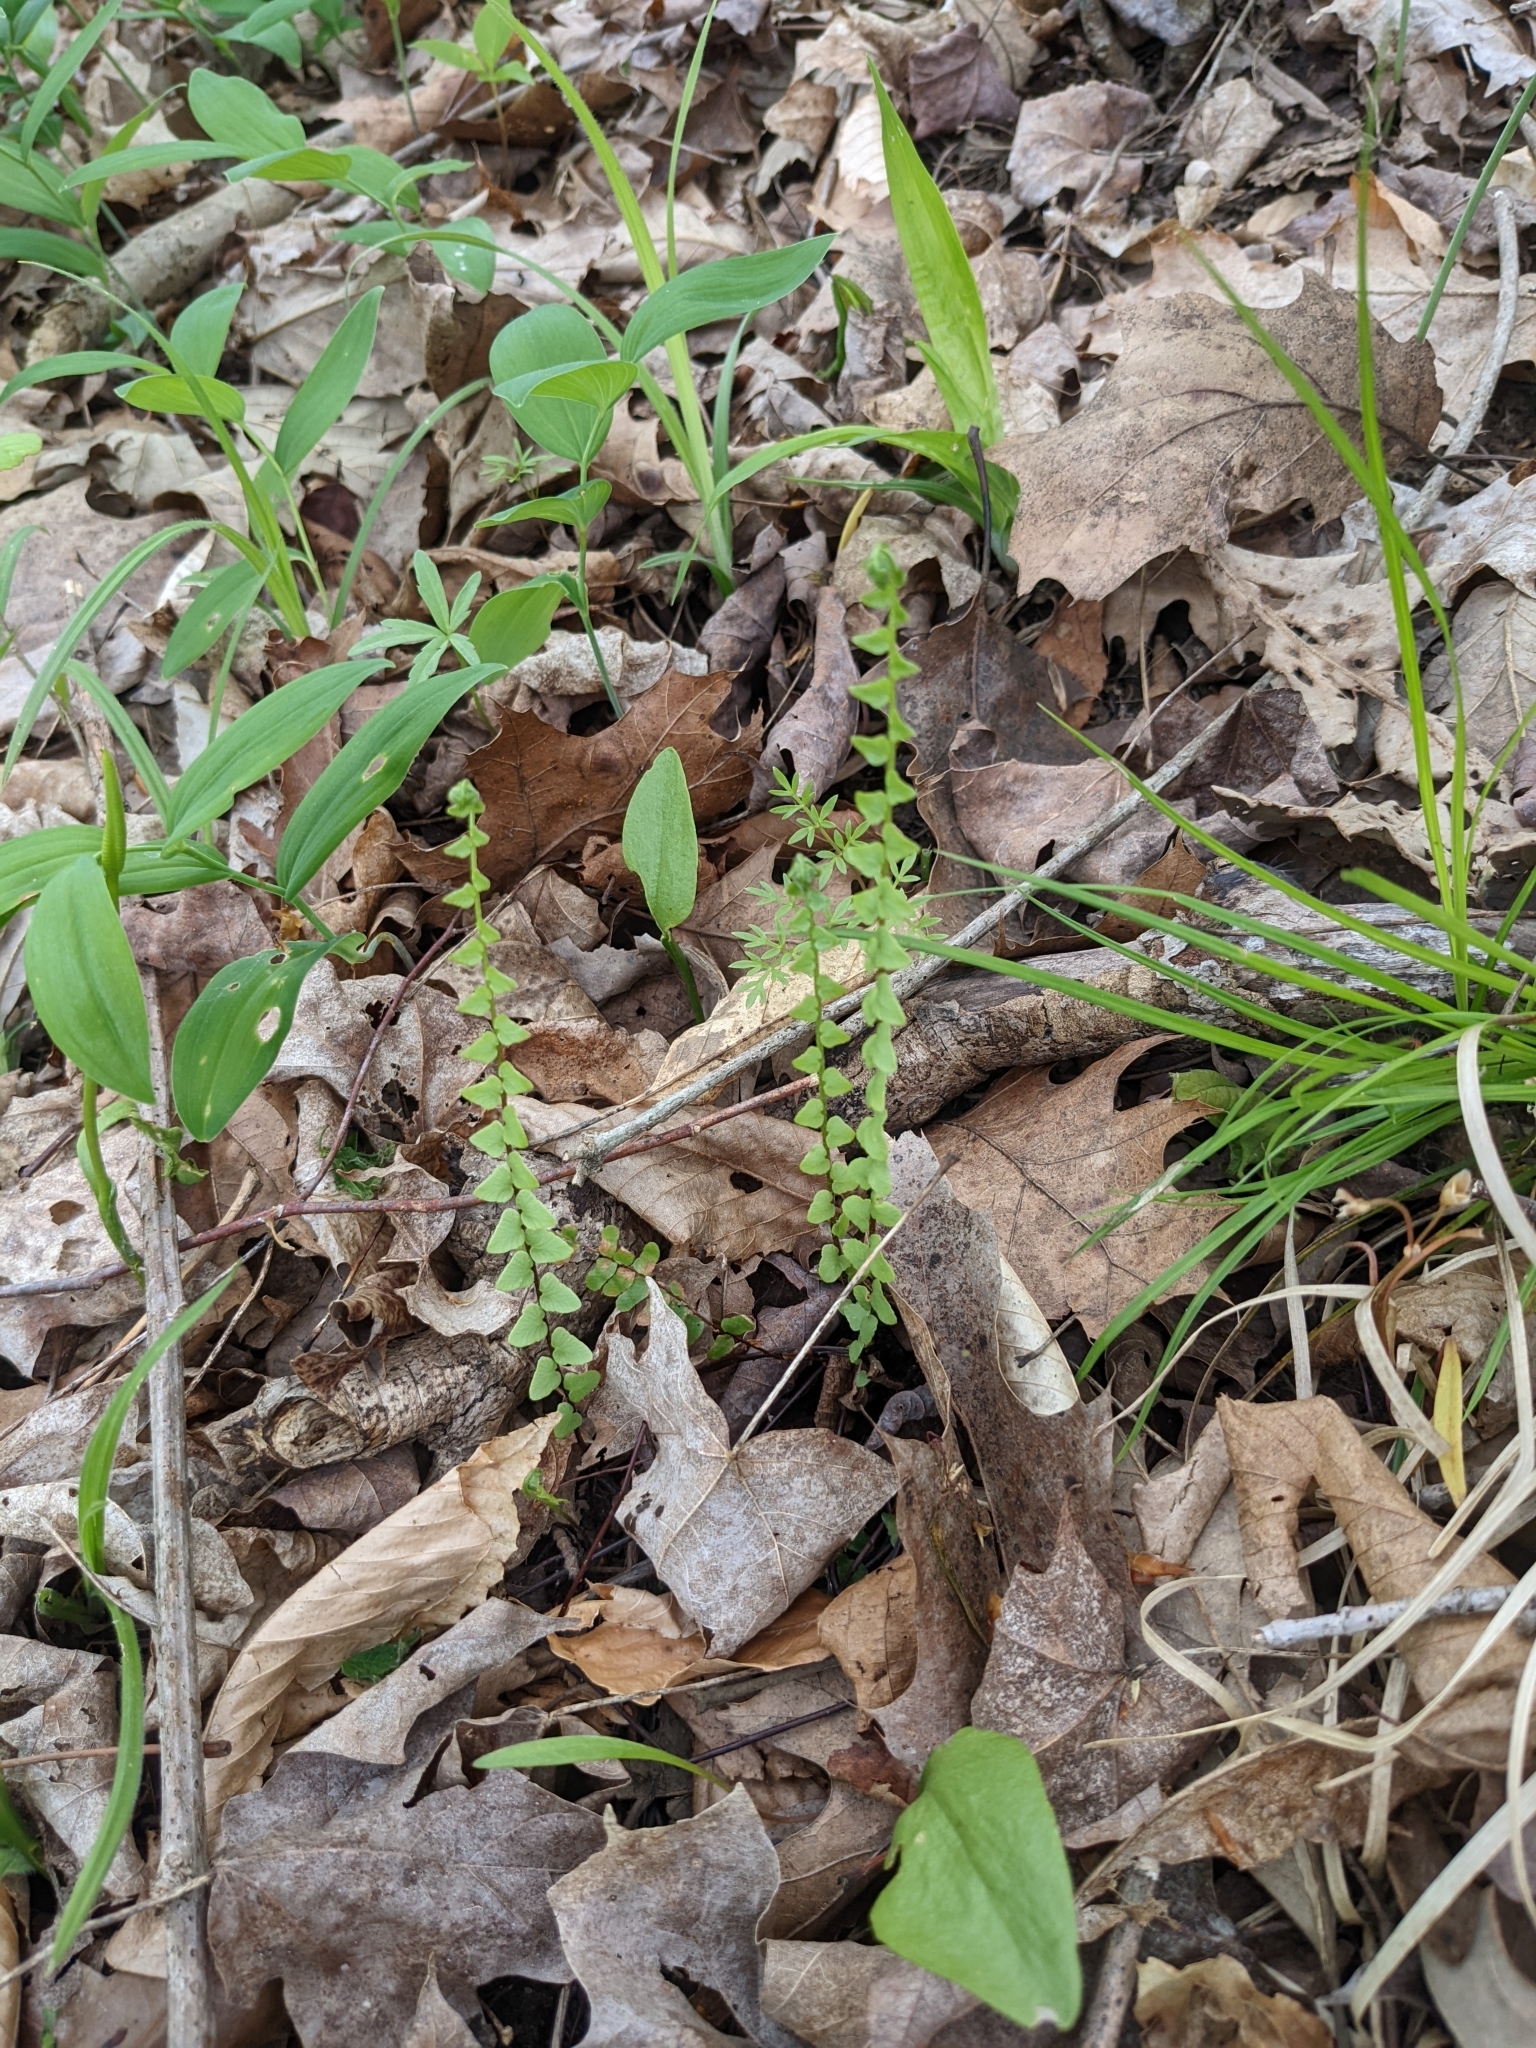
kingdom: Plantae
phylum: Tracheophyta
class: Polypodiopsida
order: Polypodiales
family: Aspleniaceae
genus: Asplenium
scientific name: Asplenium platyneuron
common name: Ebony spleenwort
